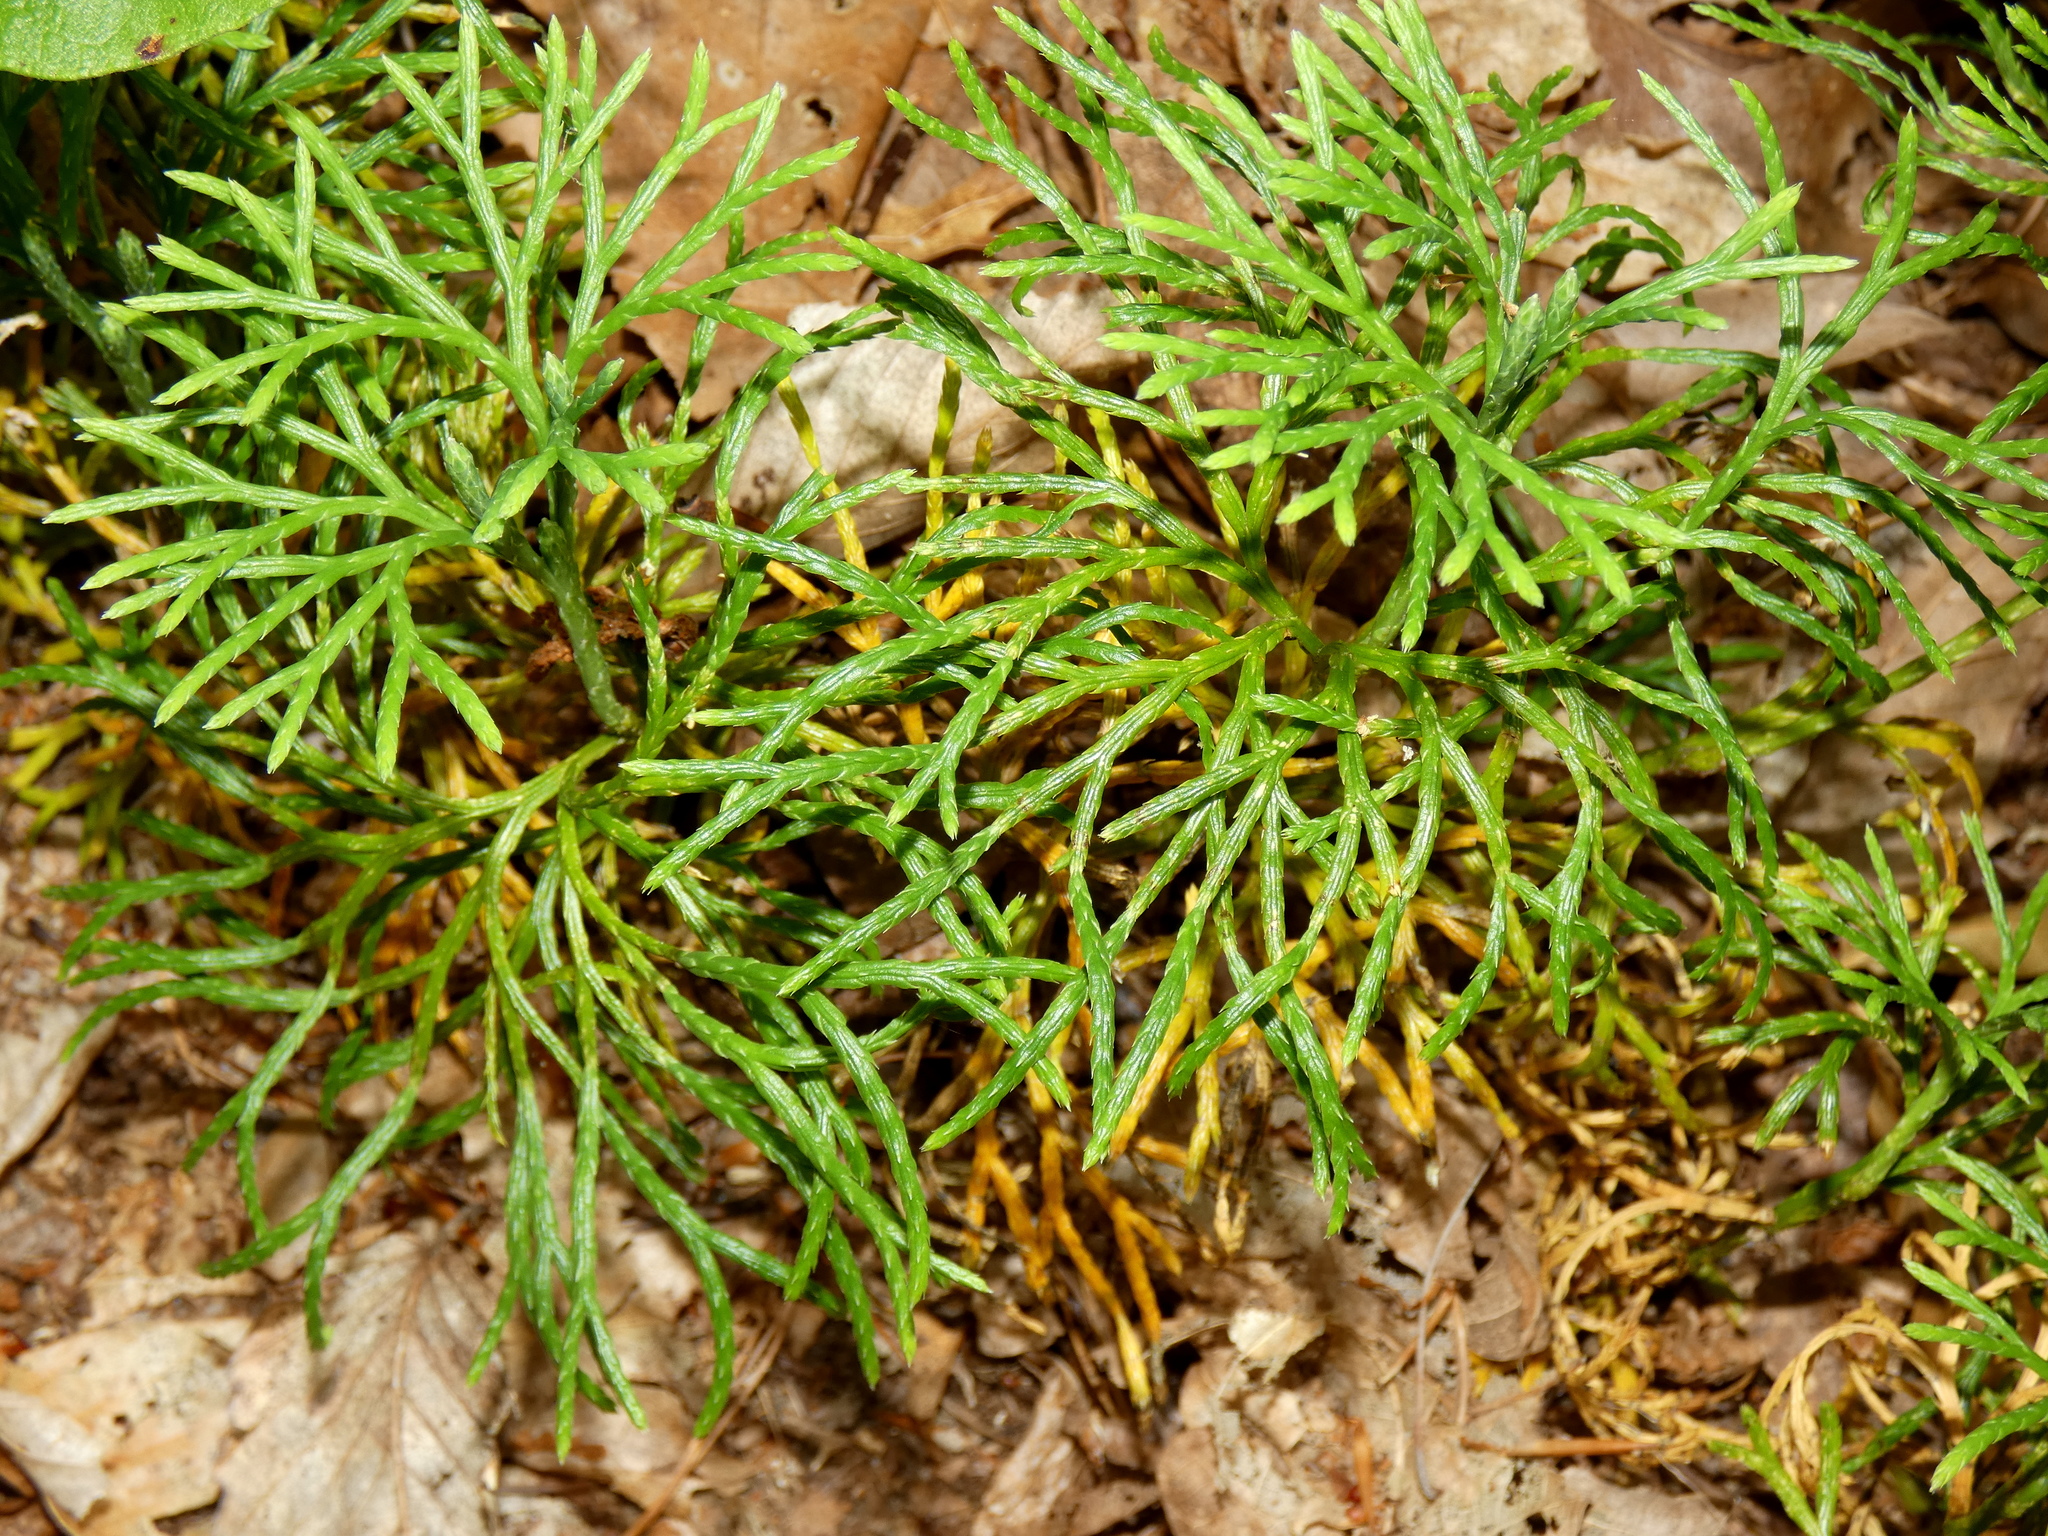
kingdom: Plantae
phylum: Tracheophyta
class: Lycopodiopsida
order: Lycopodiales
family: Lycopodiaceae
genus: Diphasiastrum
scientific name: Diphasiastrum digitatum
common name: Southern running-pine
